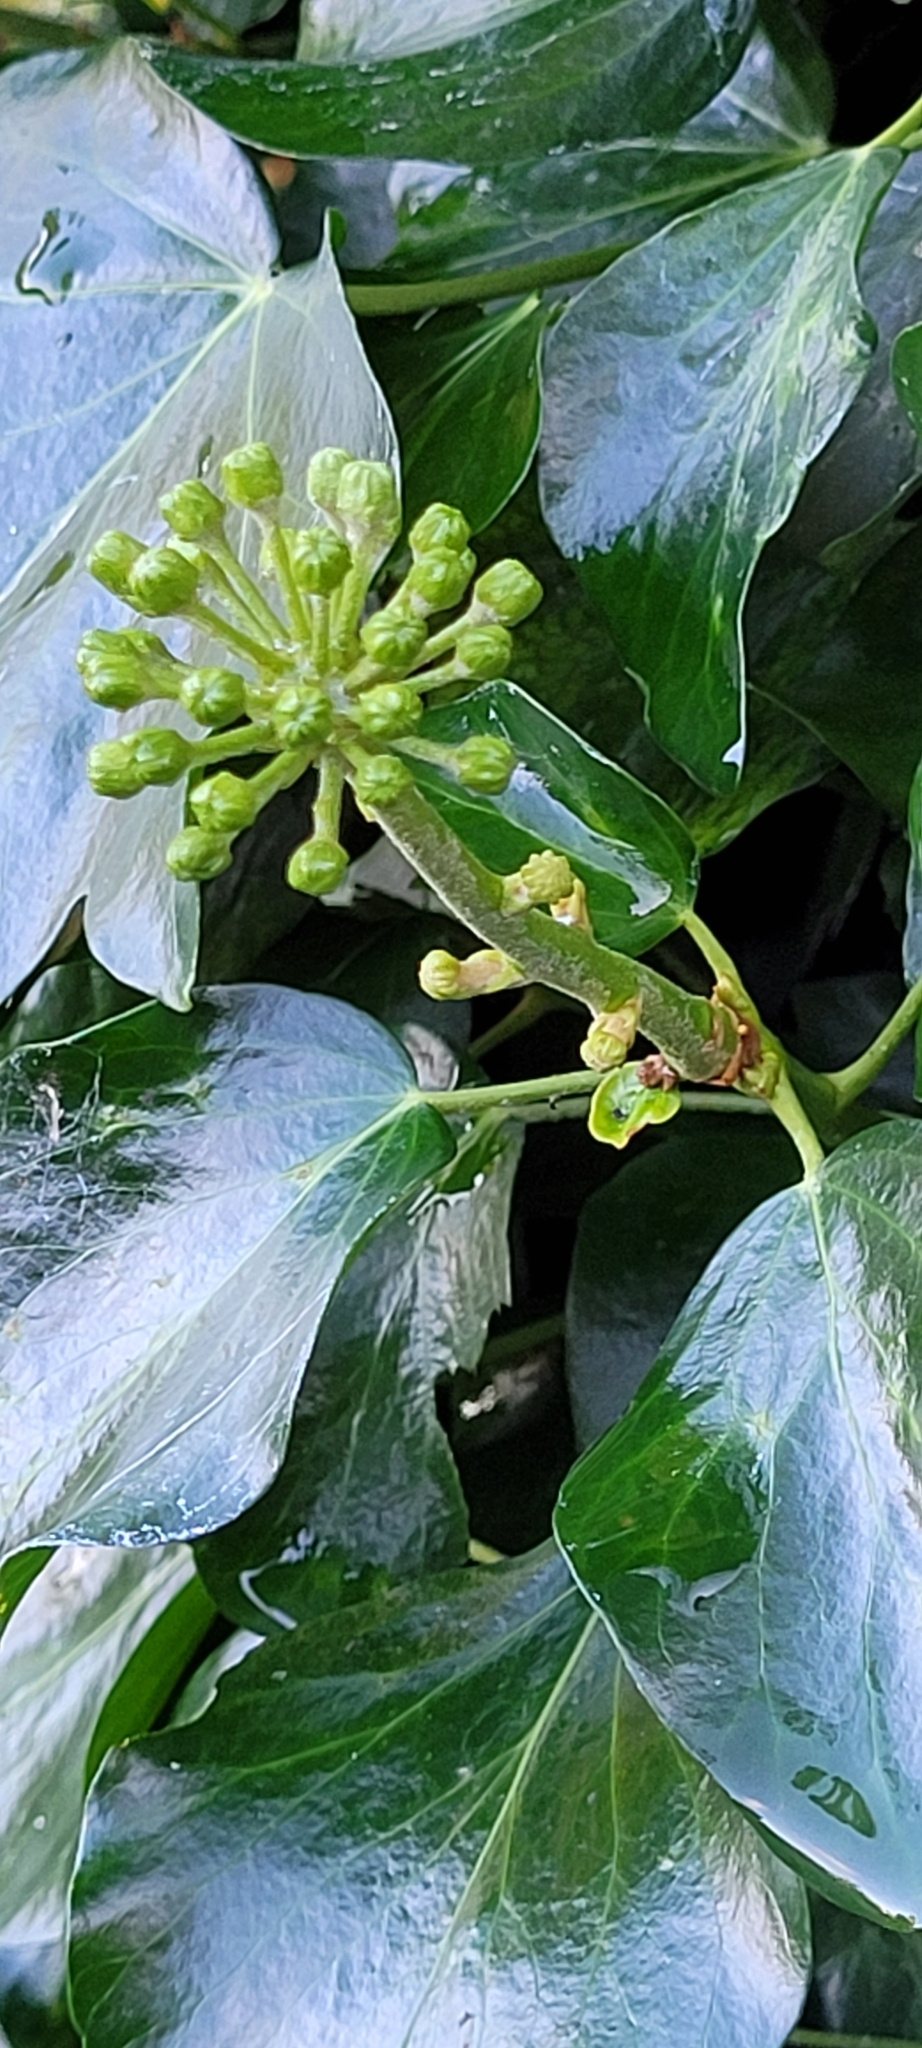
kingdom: Plantae
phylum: Tracheophyta
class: Magnoliopsida
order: Apiales
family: Araliaceae
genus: Hedera
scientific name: Hedera helix
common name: Ivy
